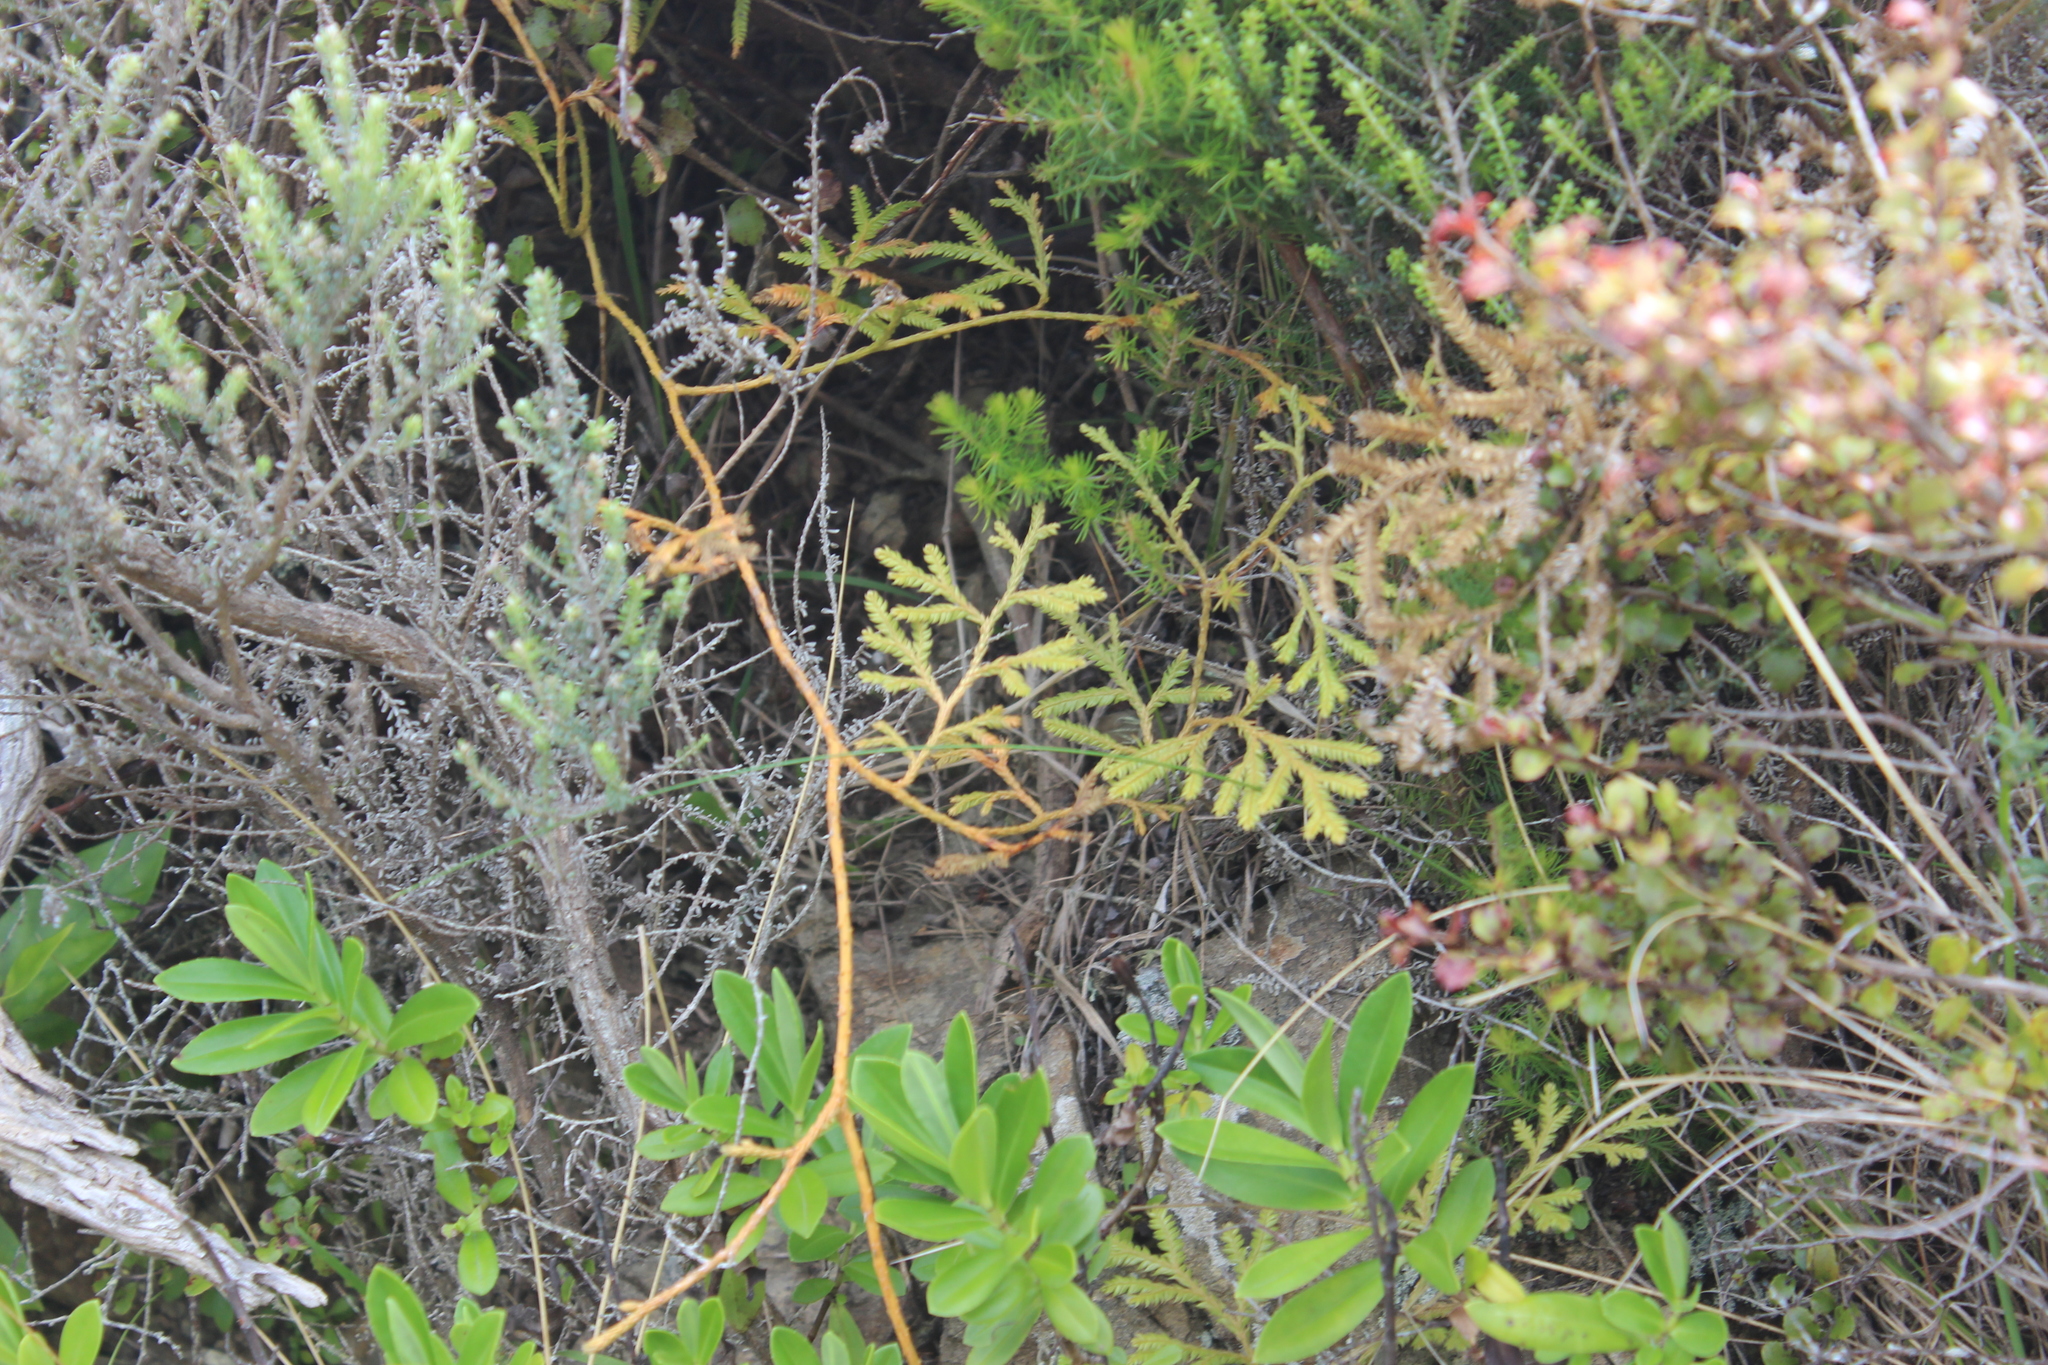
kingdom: Plantae
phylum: Tracheophyta
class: Lycopodiopsida
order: Lycopodiales
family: Lycopodiaceae
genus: Lycopodium
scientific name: Lycopodium volubile
